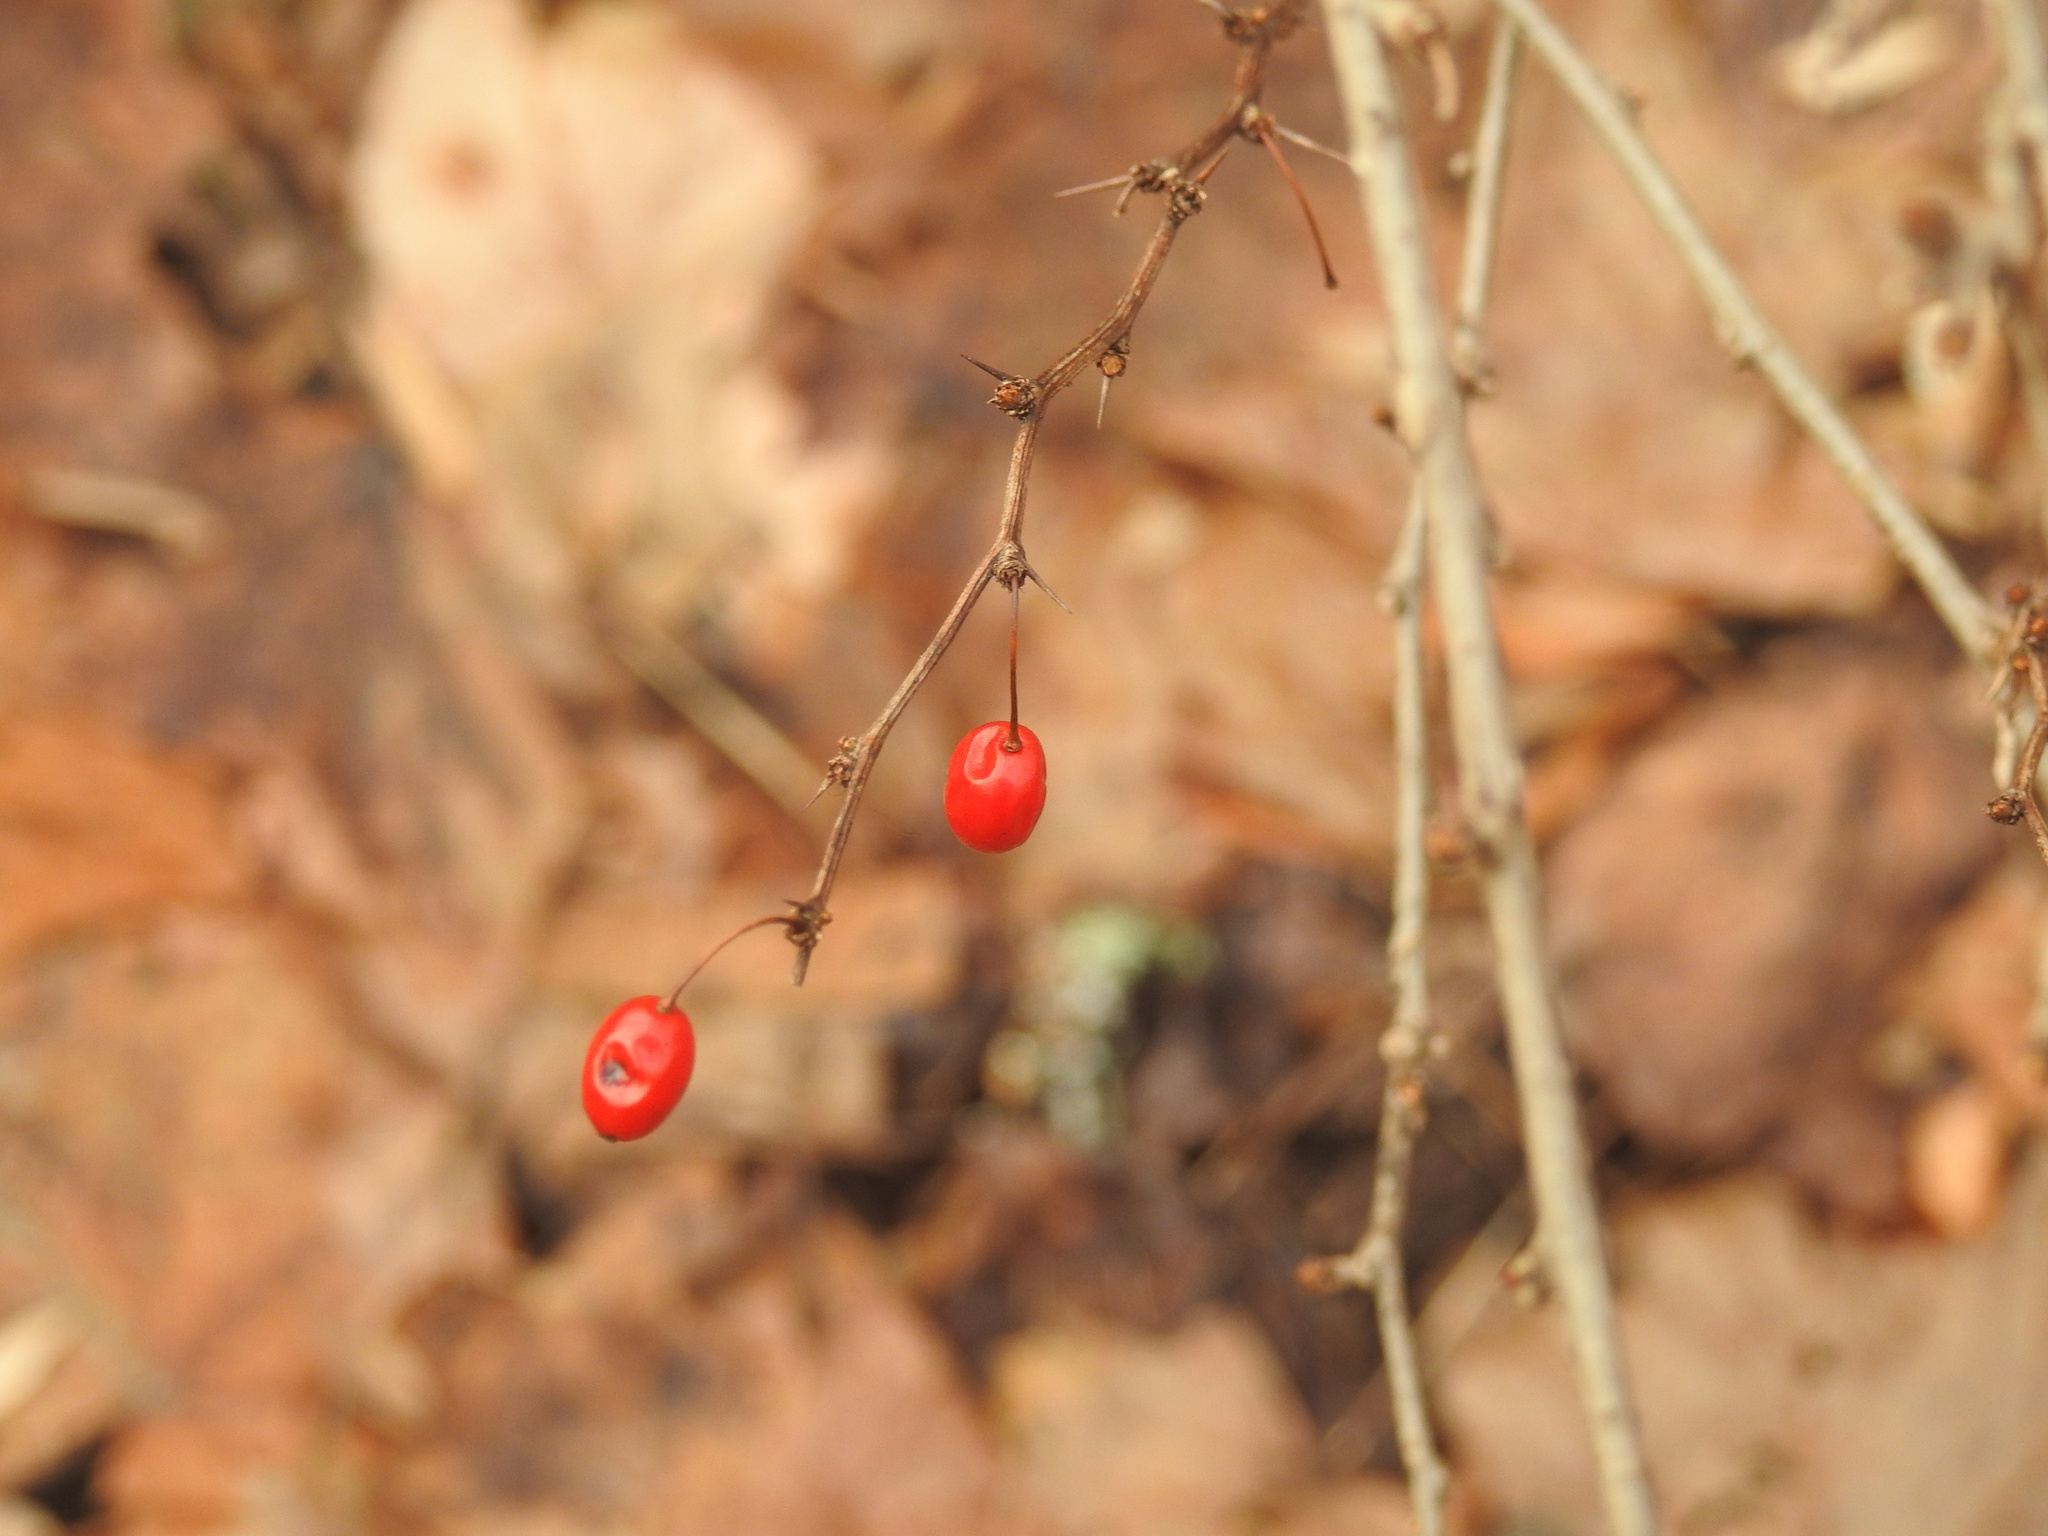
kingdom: Plantae
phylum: Tracheophyta
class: Magnoliopsida
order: Ranunculales
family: Berberidaceae
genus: Berberis
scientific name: Berberis thunbergii
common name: Japanese barberry
